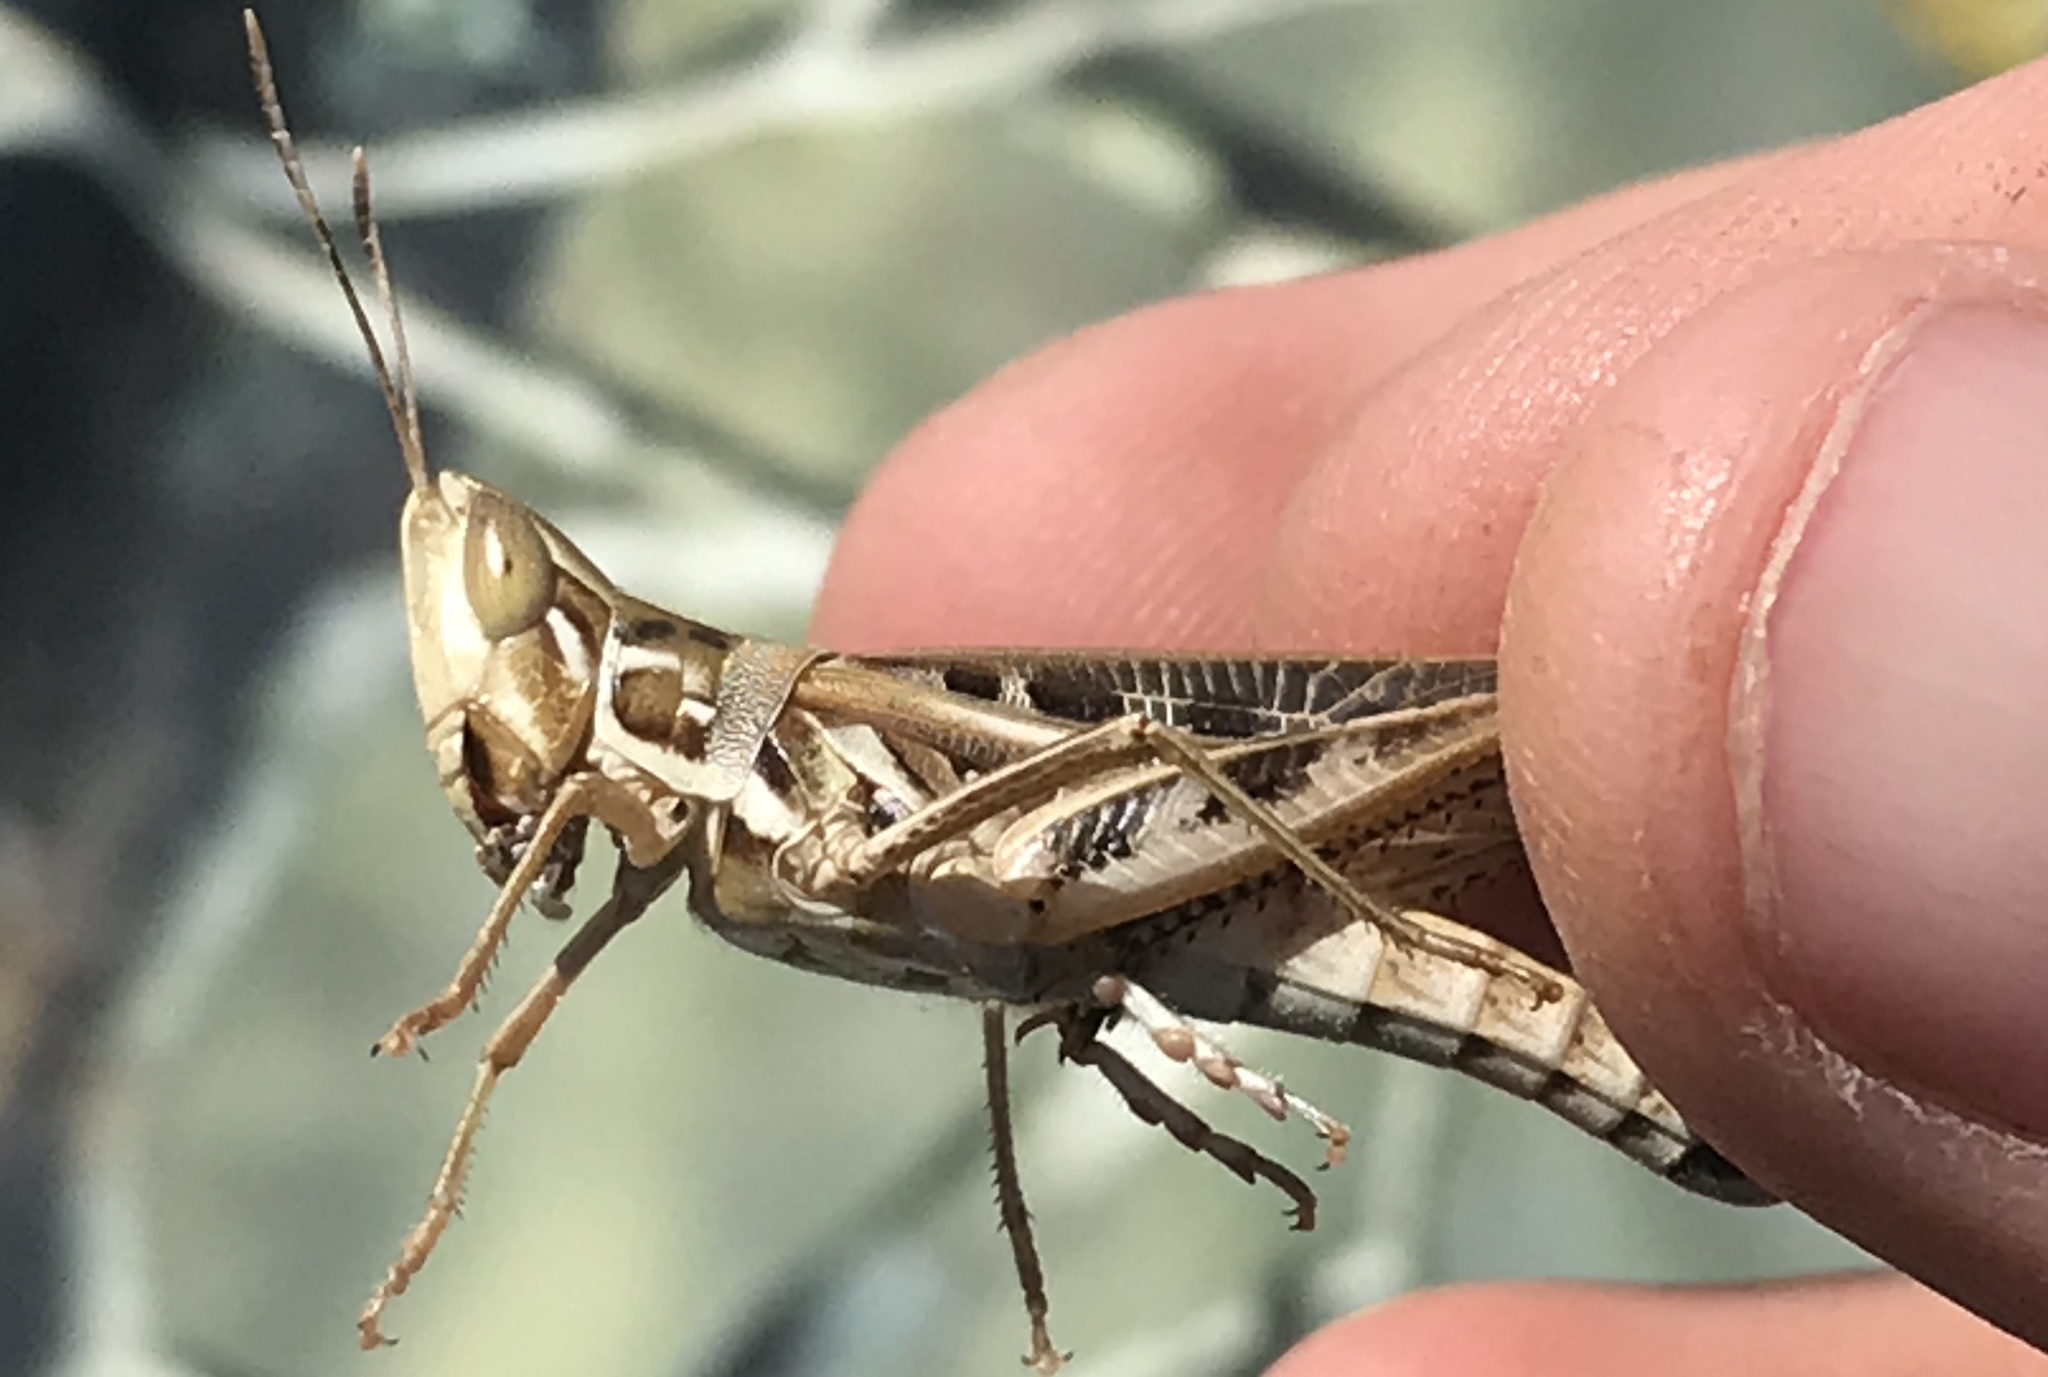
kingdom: Animalia
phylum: Arthropoda
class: Insecta
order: Orthoptera
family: Acrididae
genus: Syrbula
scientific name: Syrbula admirabilis
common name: Handsome grasshopper
